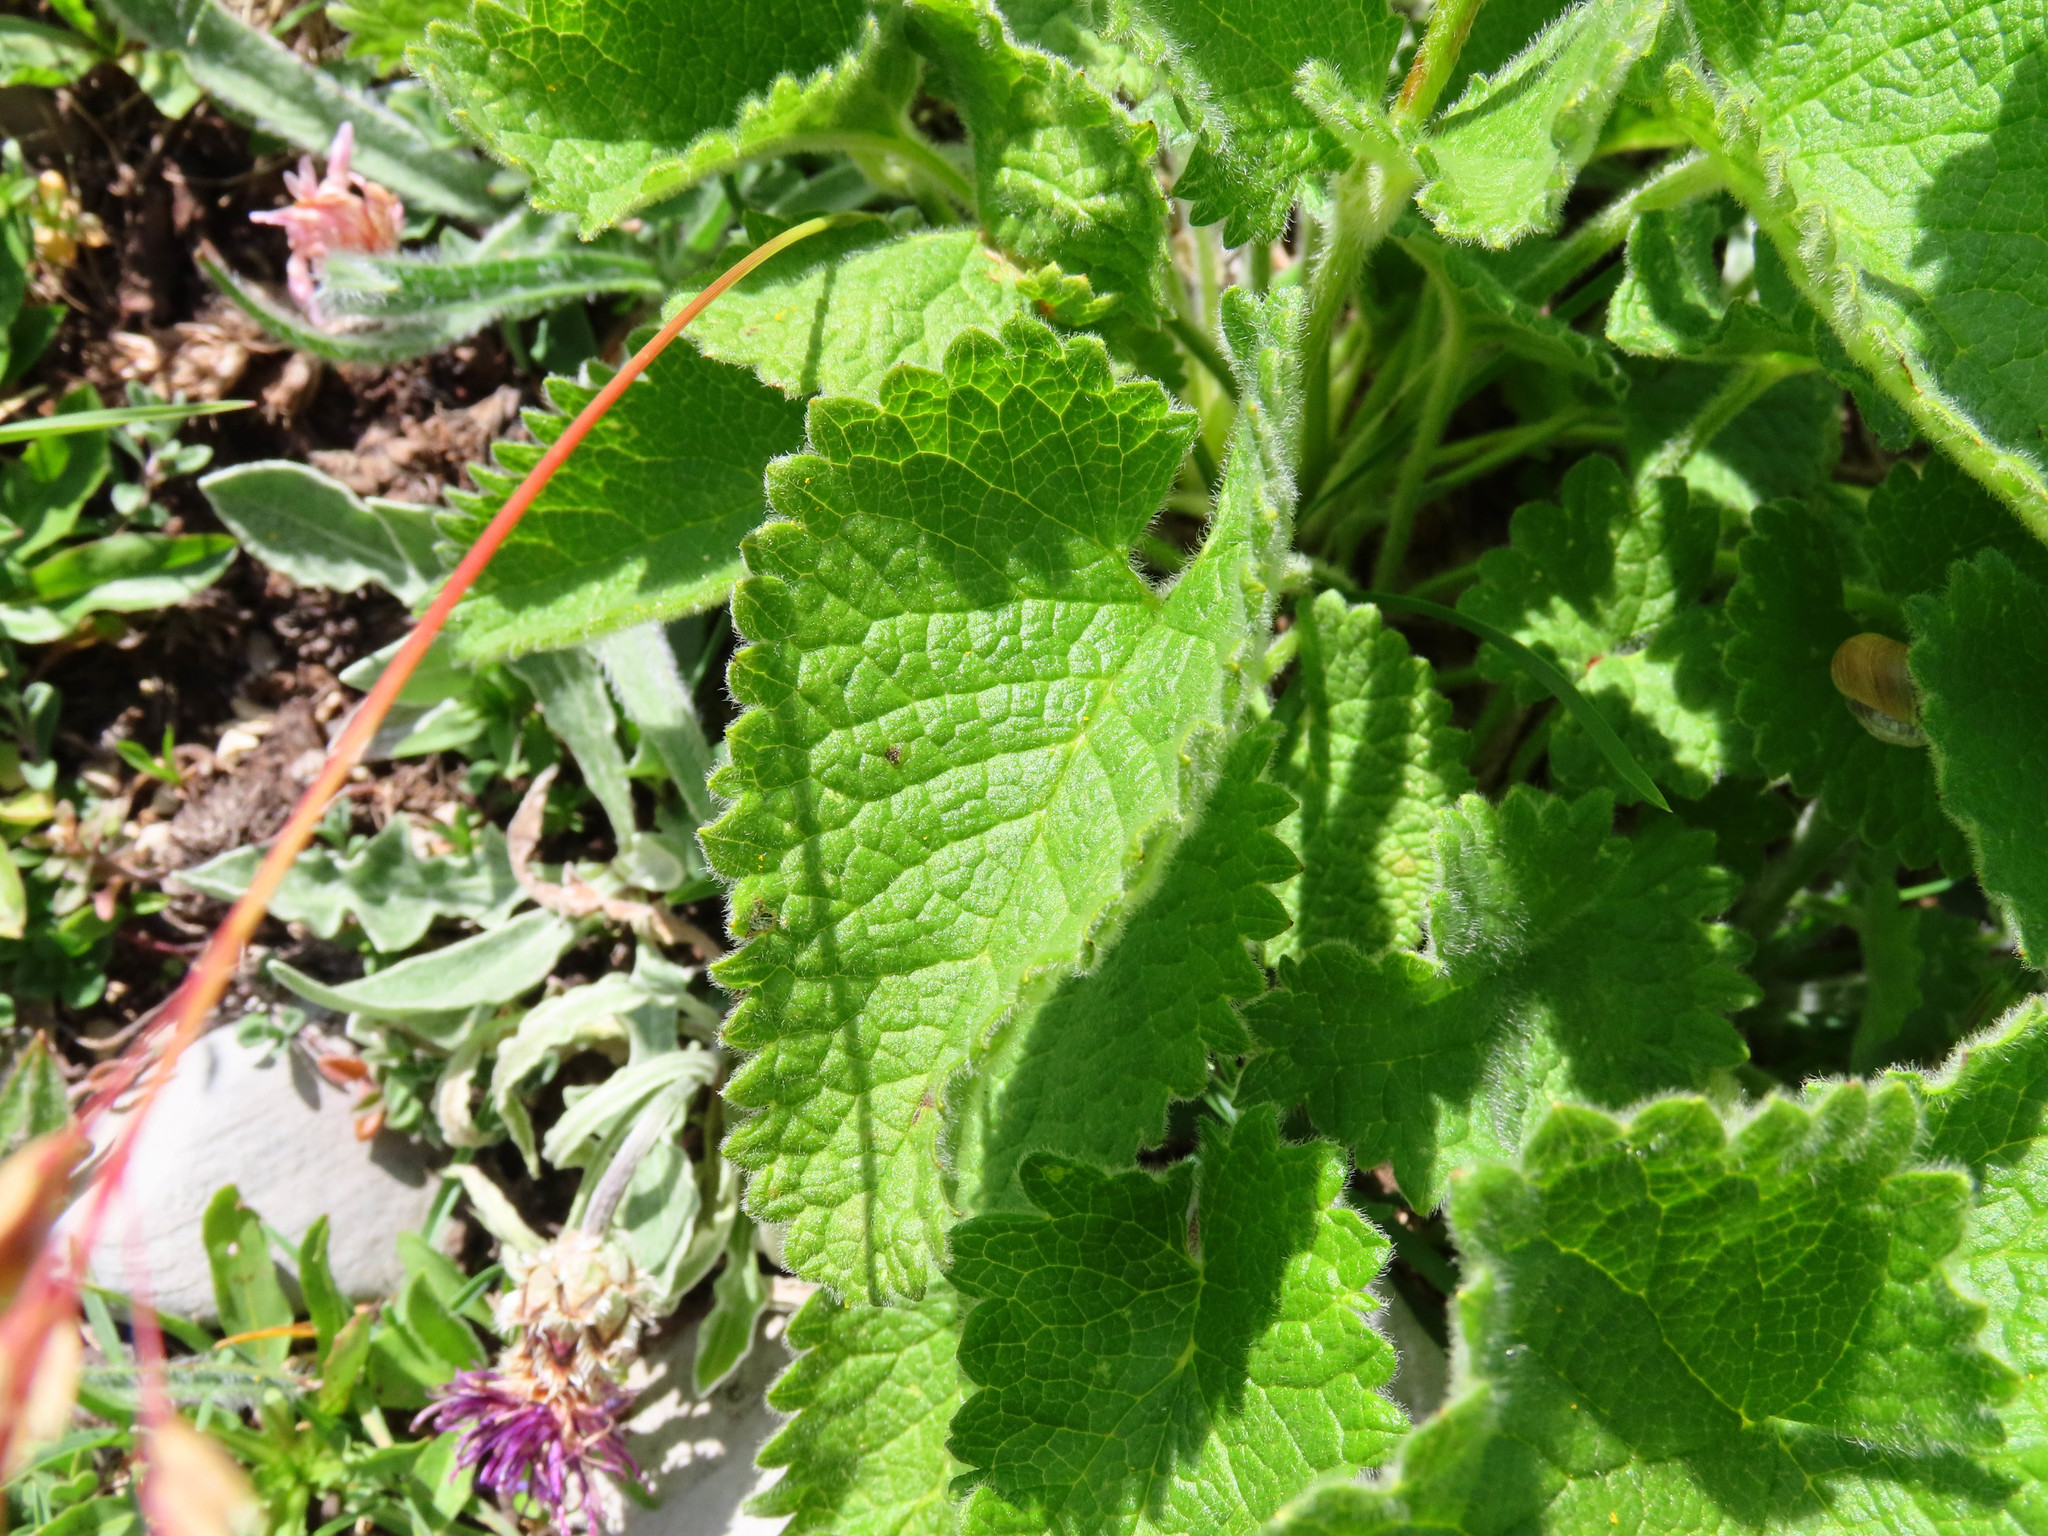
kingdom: Plantae
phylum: Tracheophyta
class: Magnoliopsida
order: Lamiales
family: Lamiaceae
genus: Betonica
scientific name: Betonica alopecuros
